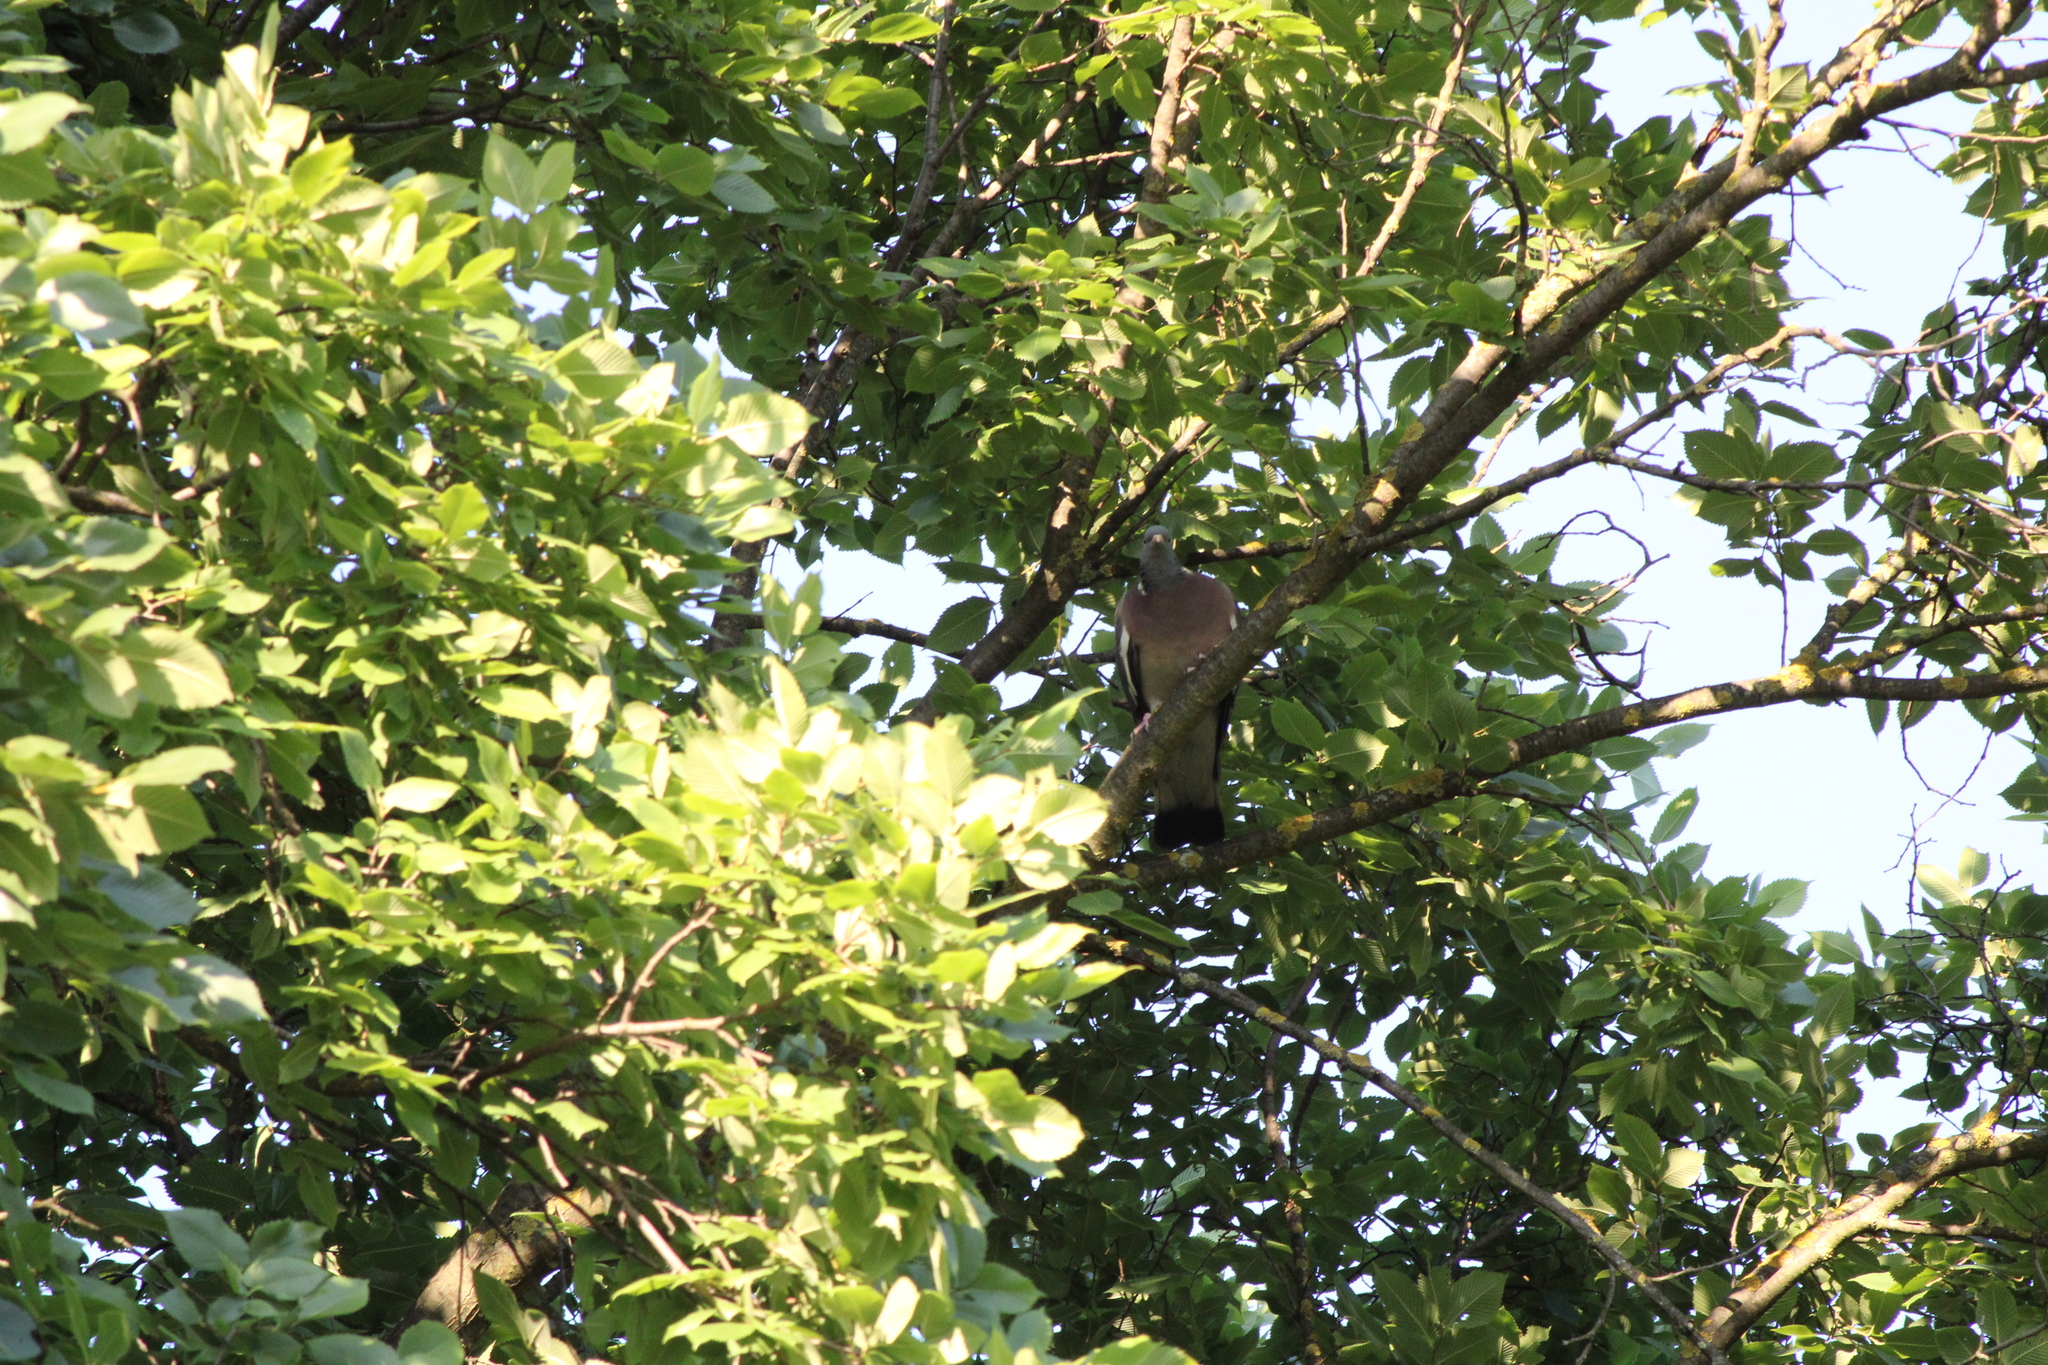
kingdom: Animalia
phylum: Chordata
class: Aves
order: Columbiformes
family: Columbidae
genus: Columba
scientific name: Columba palumbus
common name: Common wood pigeon
